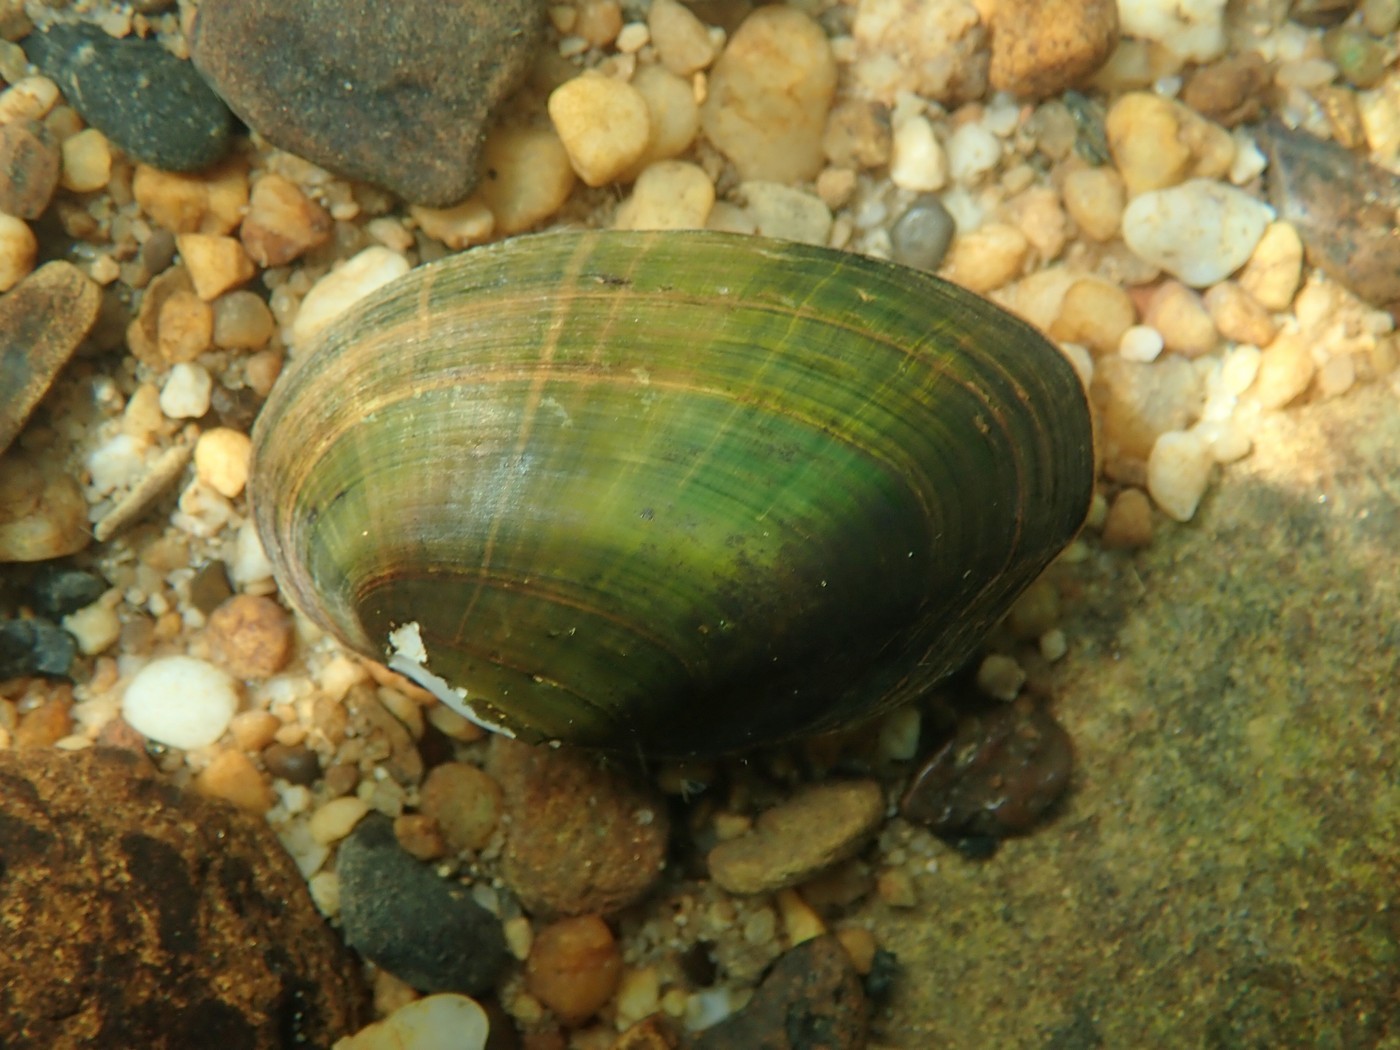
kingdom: Animalia
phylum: Mollusca
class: Bivalvia
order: Unionida
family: Unionidae
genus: Venustaconcha
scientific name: Venustaconcha troostensis
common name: Cumberland bean
